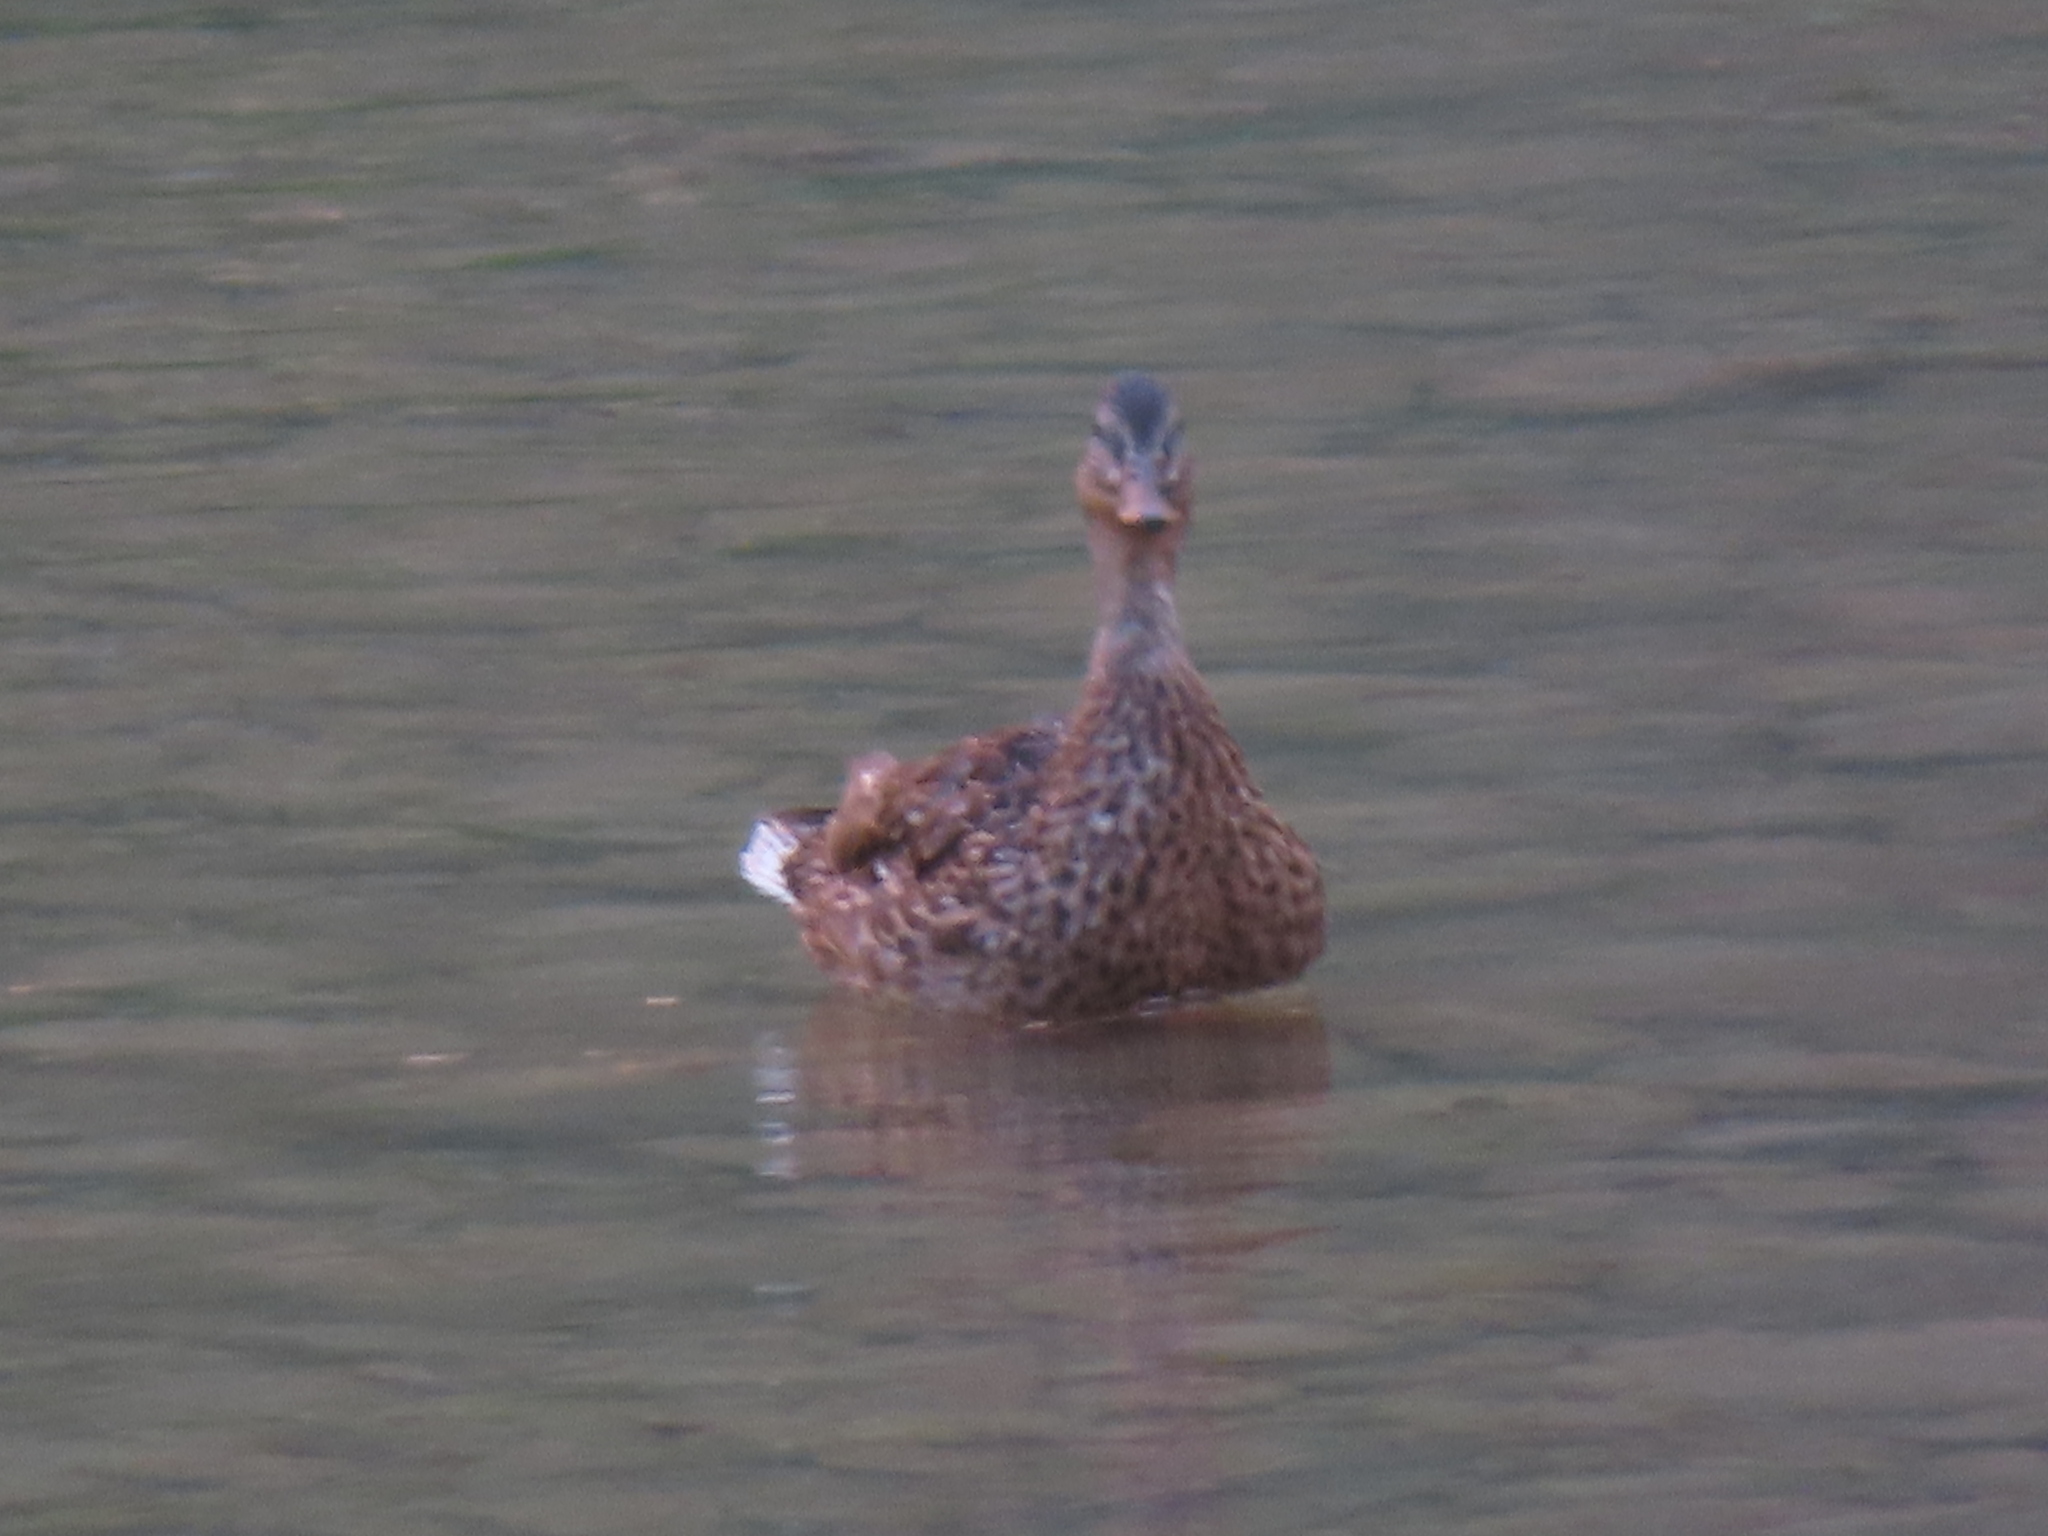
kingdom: Animalia
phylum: Chordata
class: Aves
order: Anseriformes
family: Anatidae
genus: Anas
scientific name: Anas platyrhynchos
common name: Mallard
